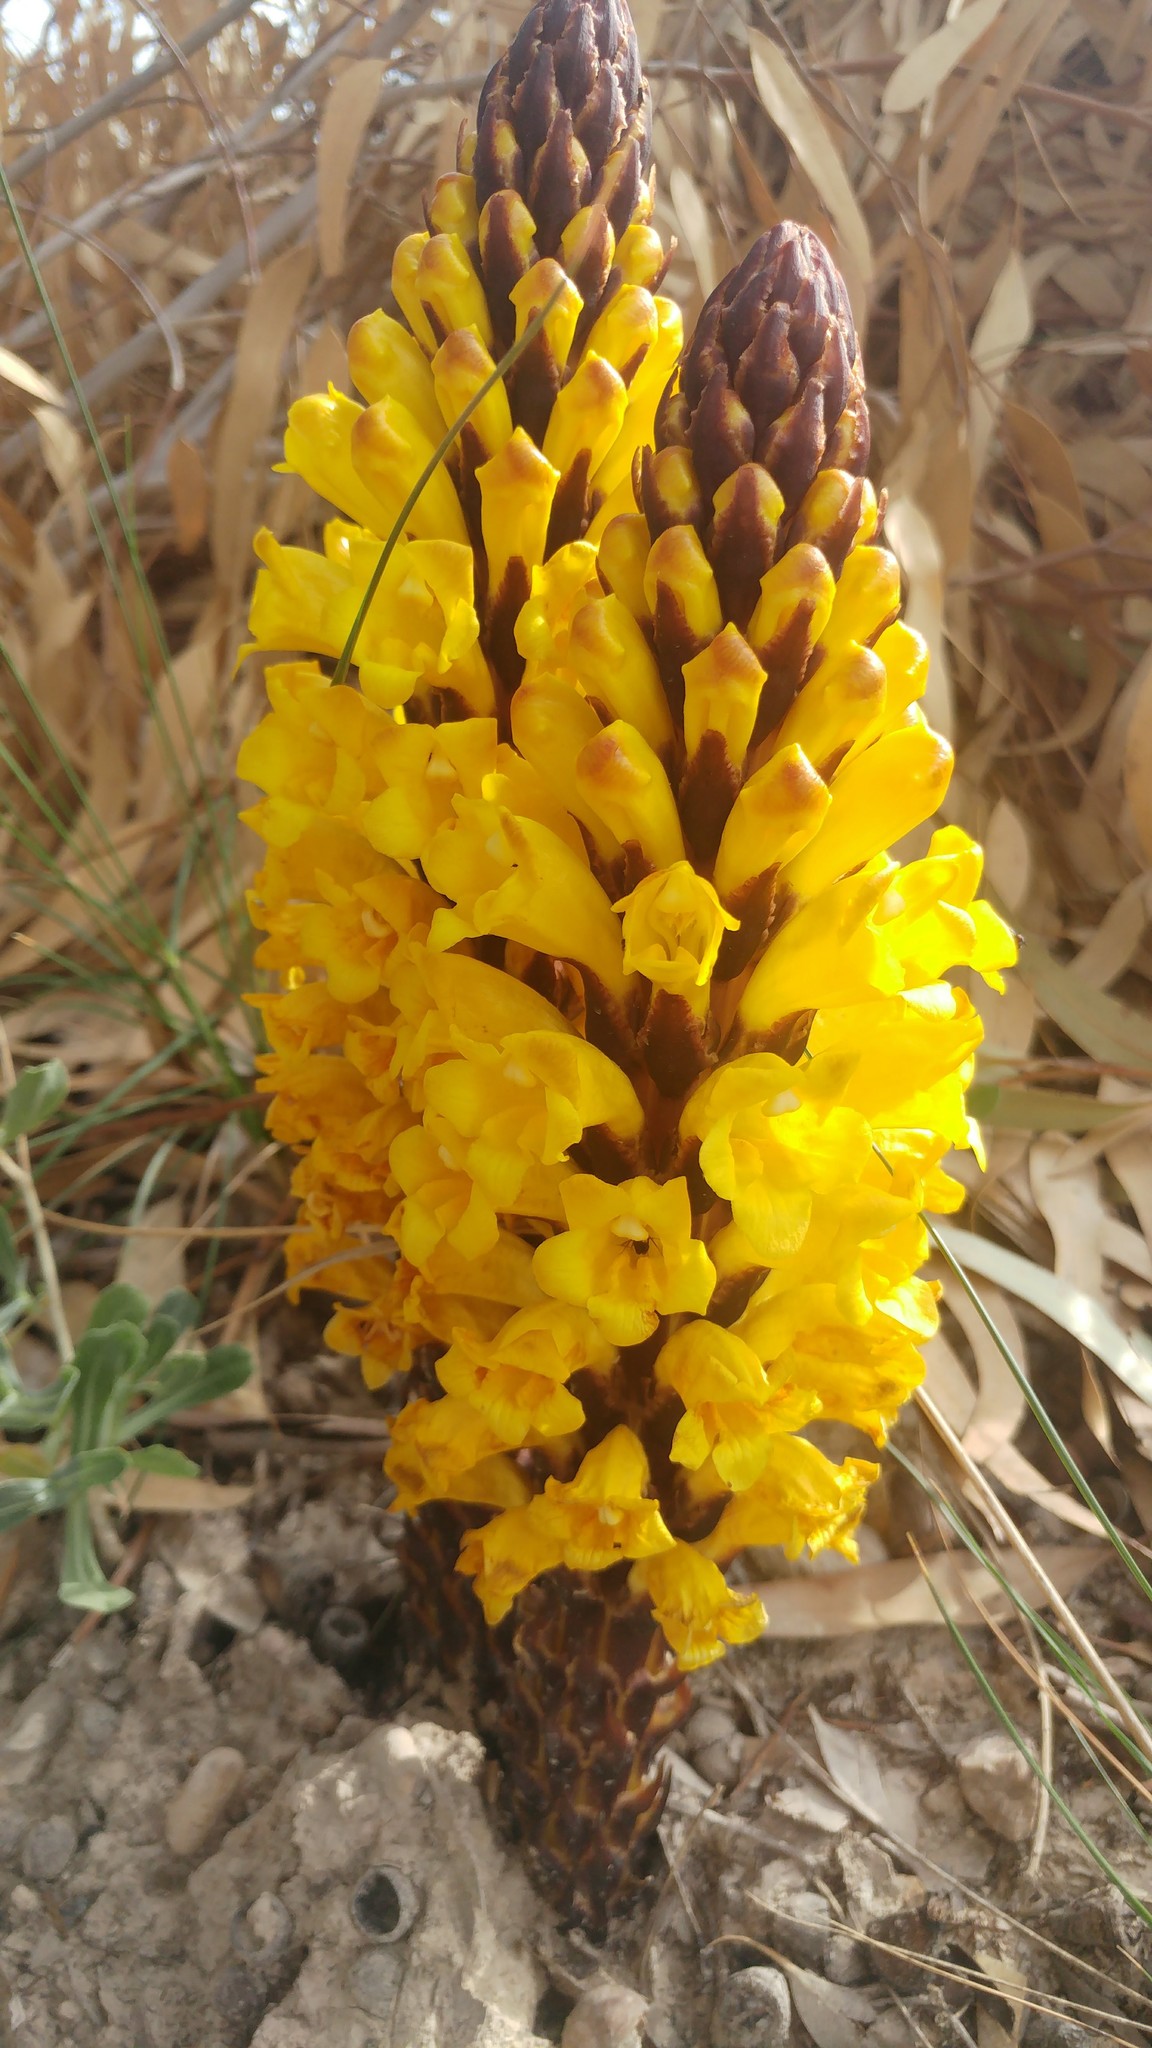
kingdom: Plantae
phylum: Tracheophyta
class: Magnoliopsida
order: Lamiales
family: Orobanchaceae
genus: Cistanche
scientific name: Cistanche
